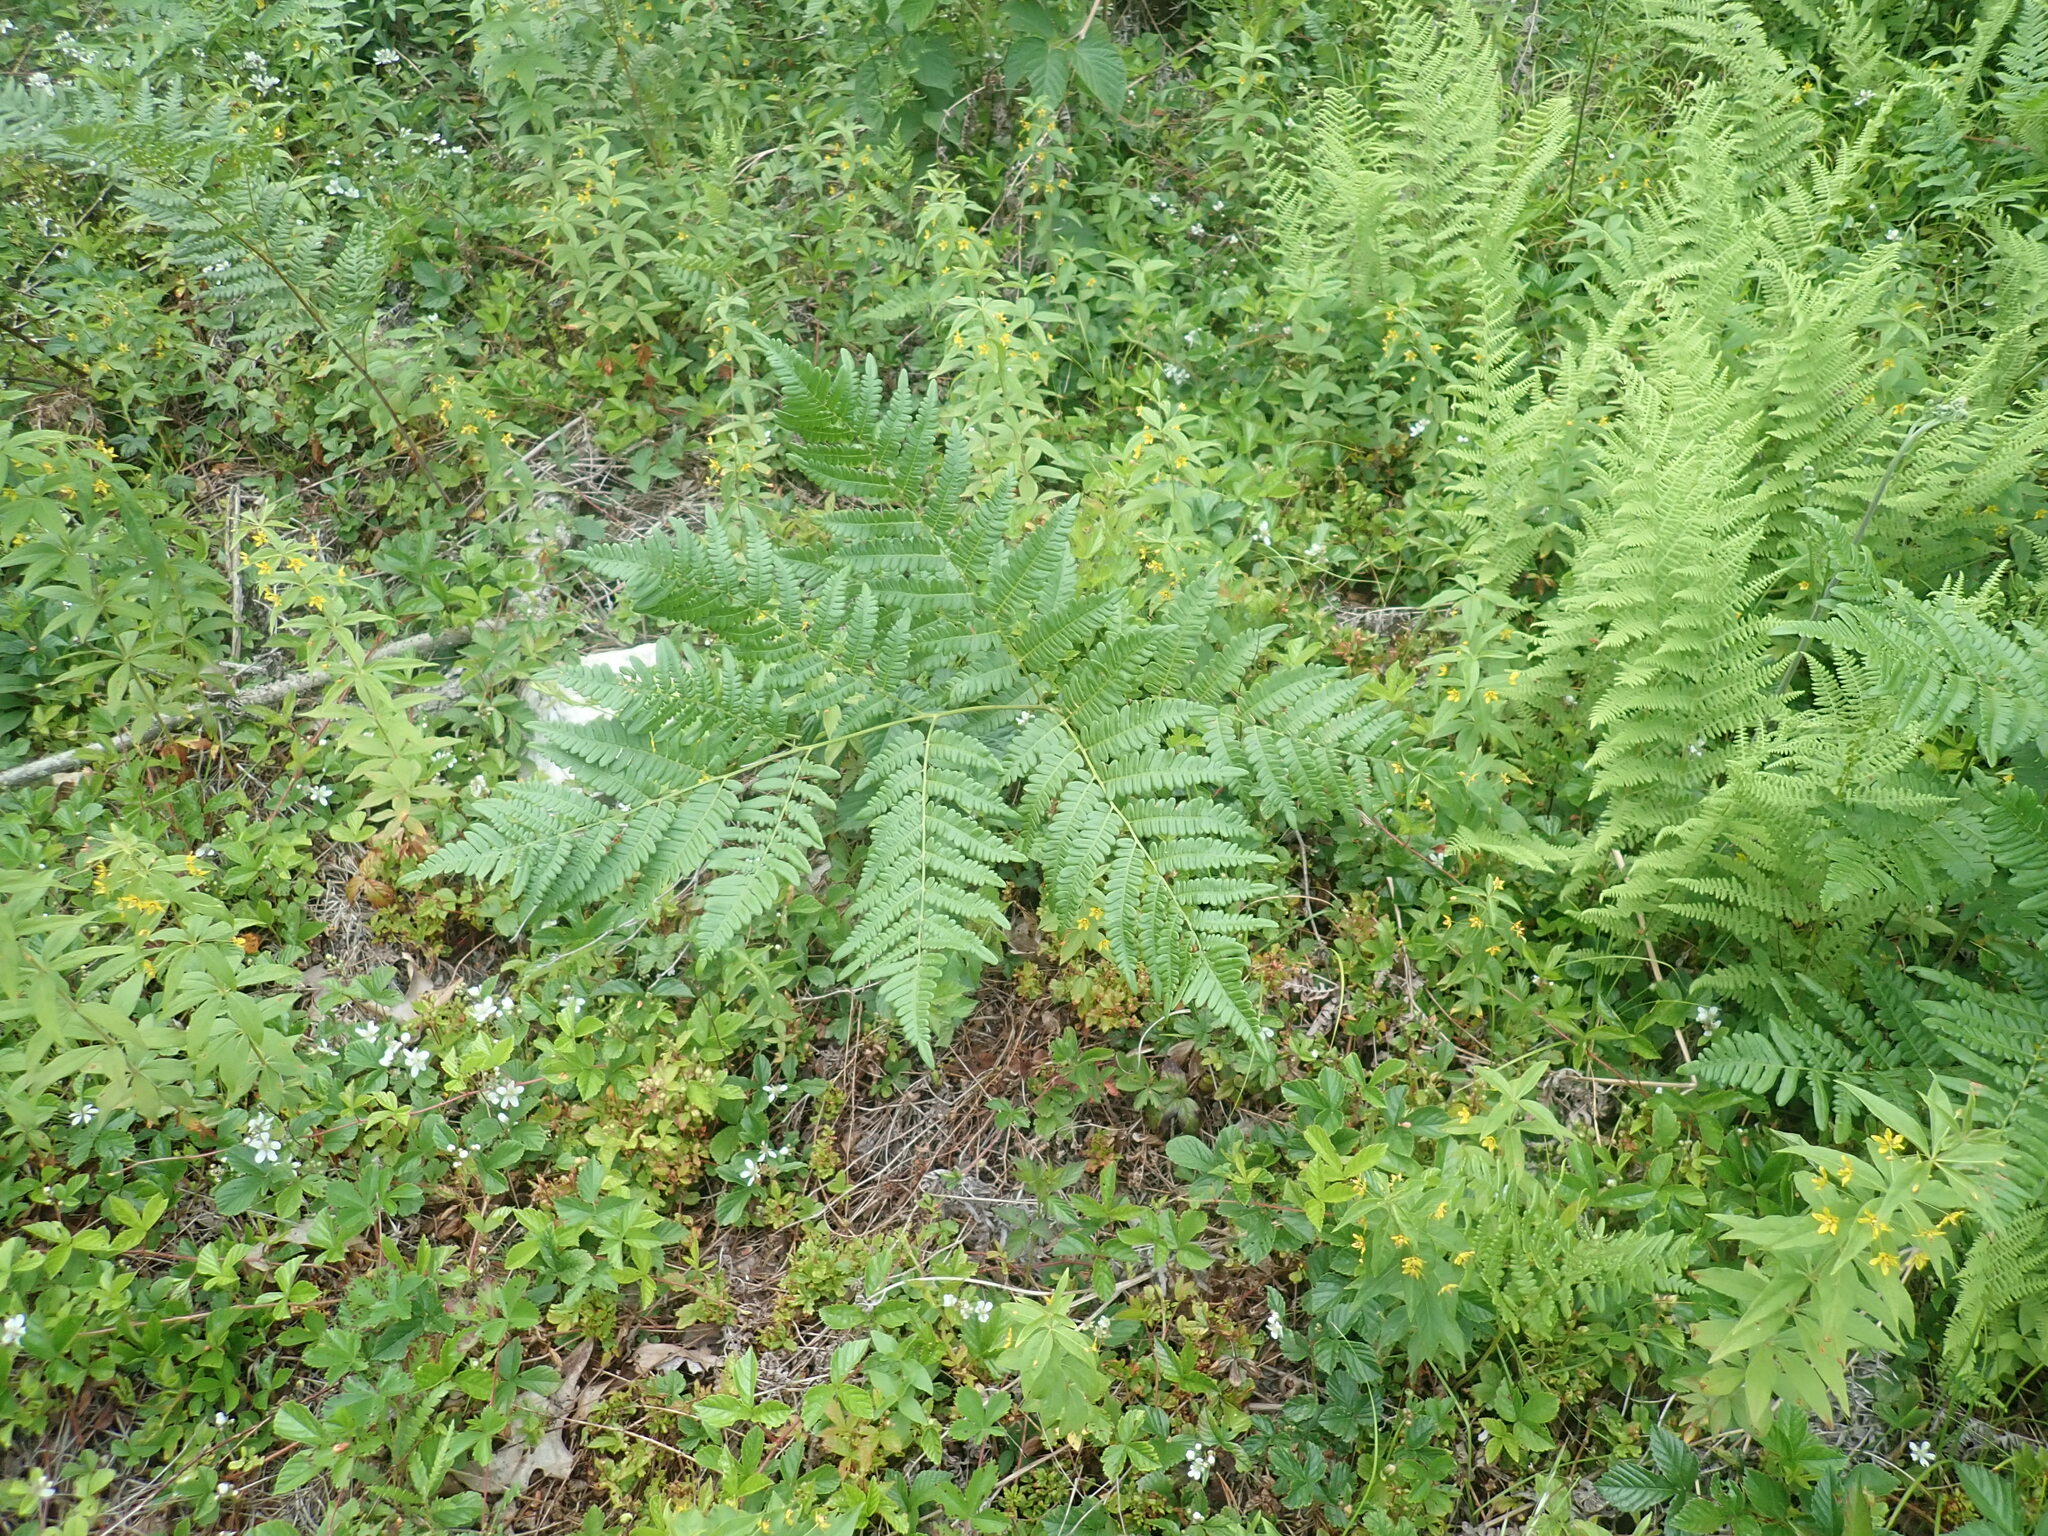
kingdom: Plantae
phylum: Tracheophyta
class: Polypodiopsida
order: Polypodiales
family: Dennstaedtiaceae
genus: Pteridium
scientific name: Pteridium aquilinum
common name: Bracken
